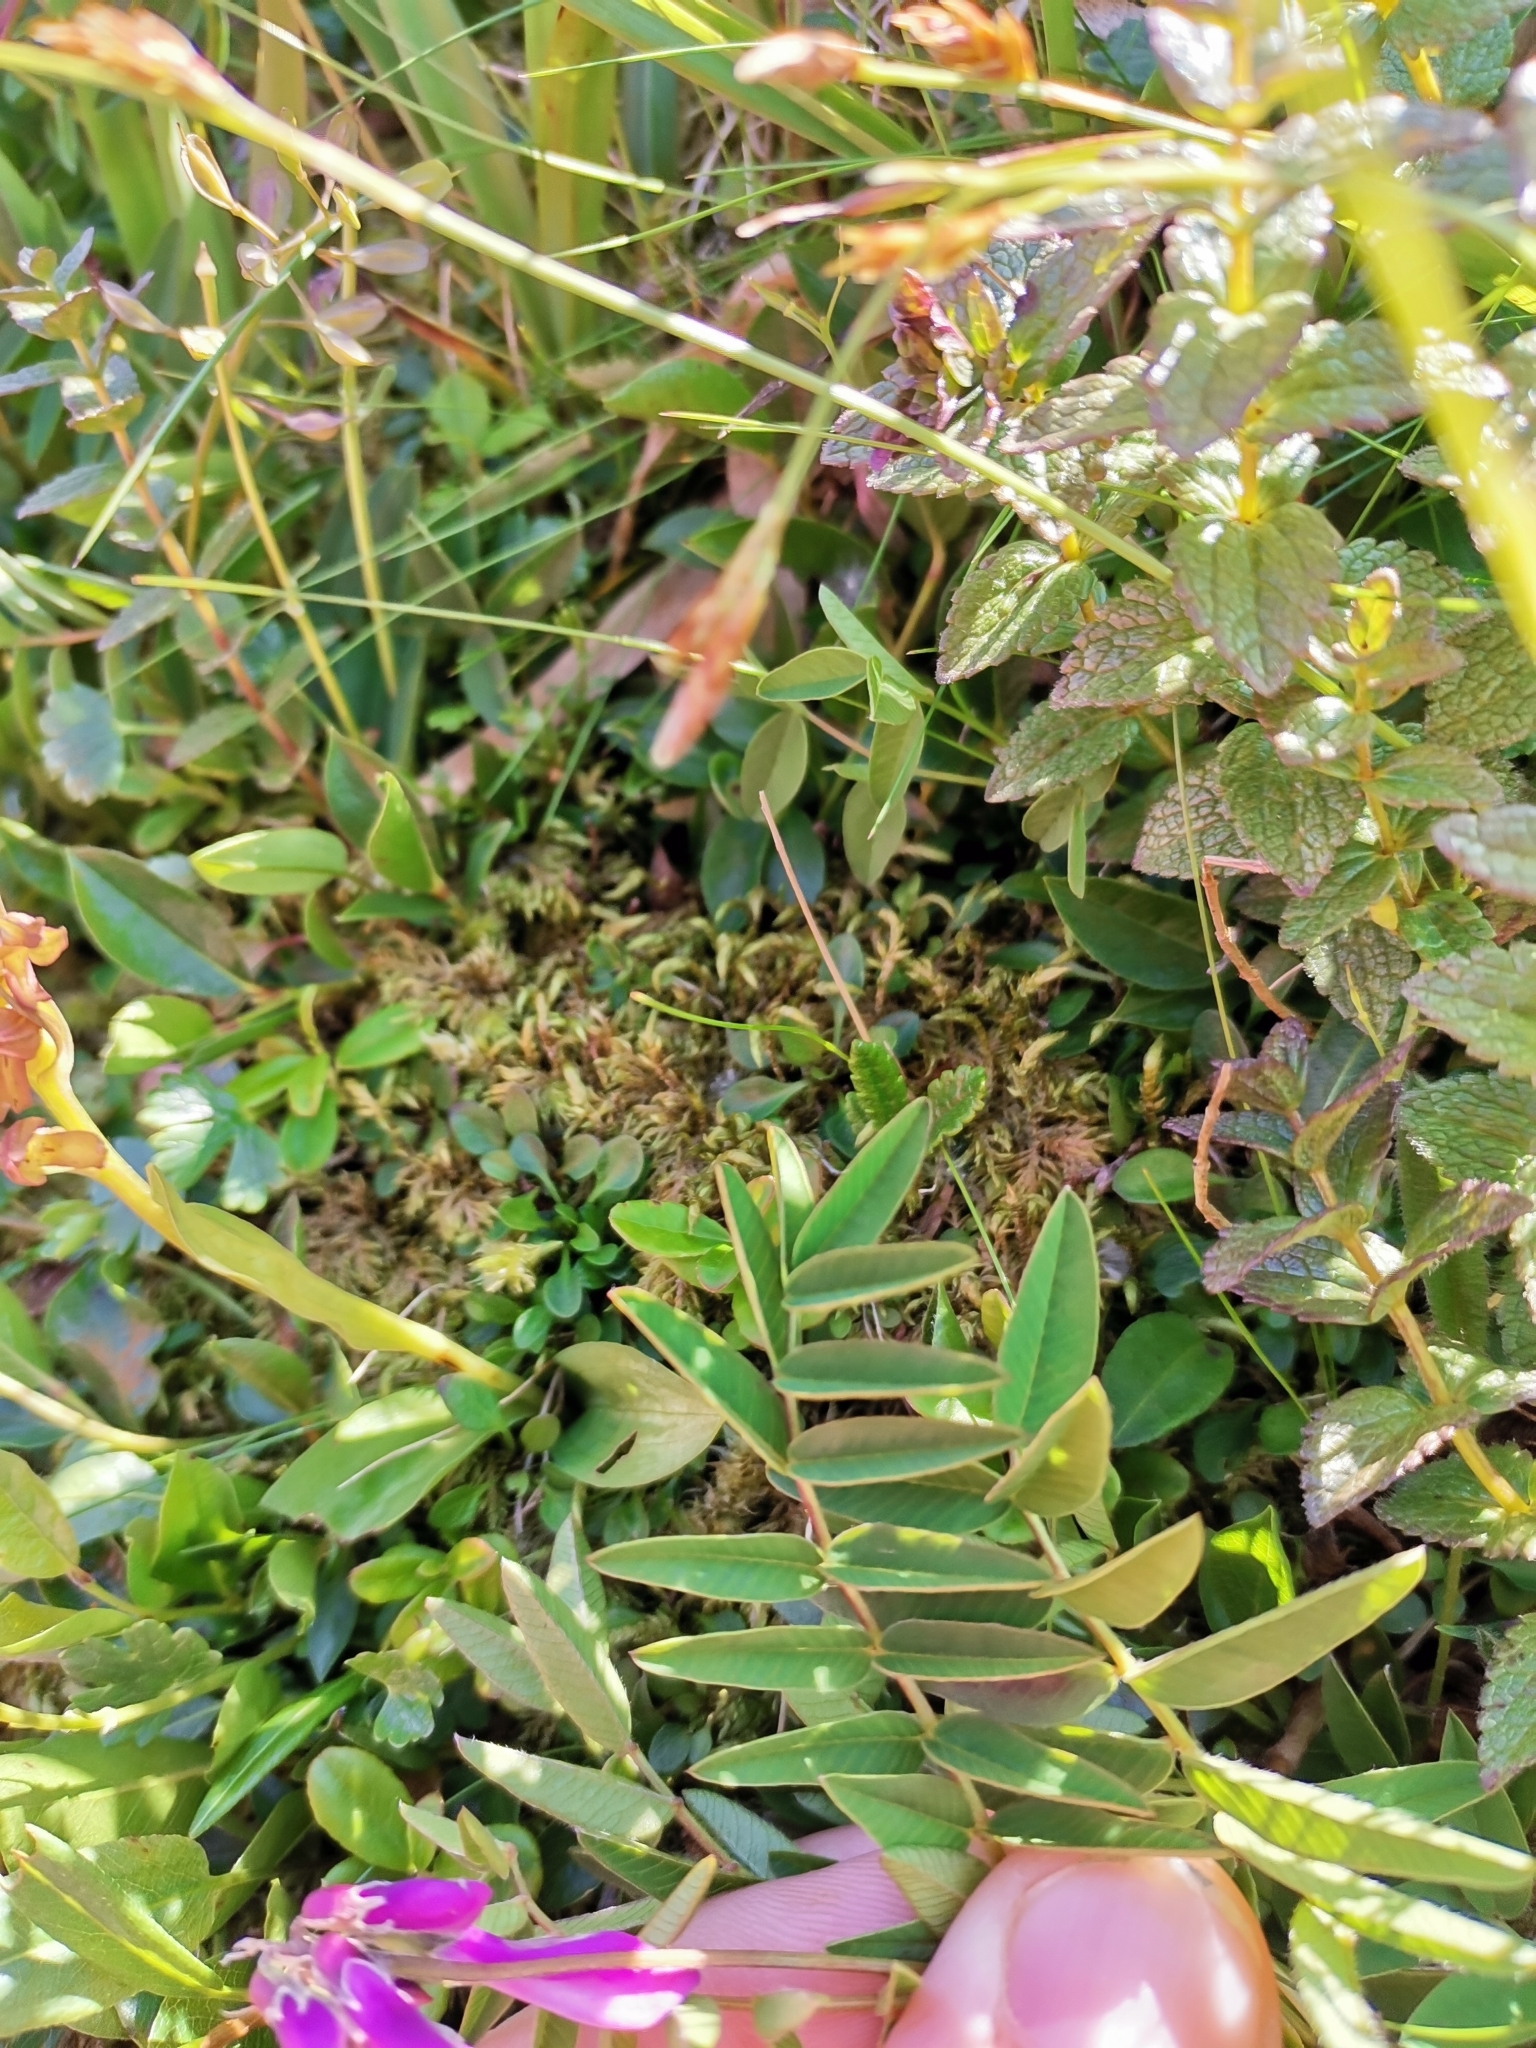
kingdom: Plantae
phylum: Tracheophyta
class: Magnoliopsida
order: Fabales
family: Fabaceae
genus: Hedysarum
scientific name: Hedysarum hedysaroides
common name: Alpine french-honeysuckle
